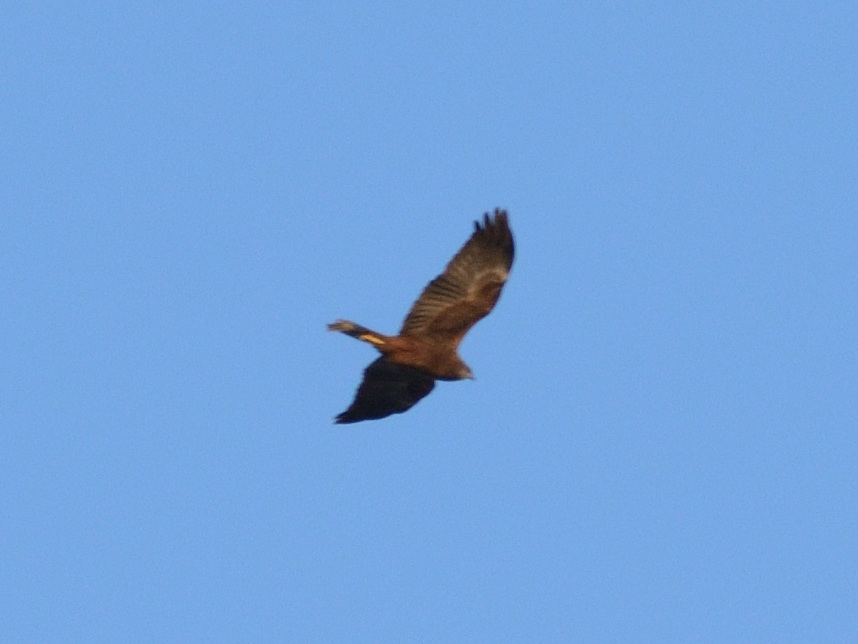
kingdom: Animalia
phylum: Chordata
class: Aves
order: Accipitriformes
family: Accipitridae
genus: Circus
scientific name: Circus aeruginosus
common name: Western marsh harrier
